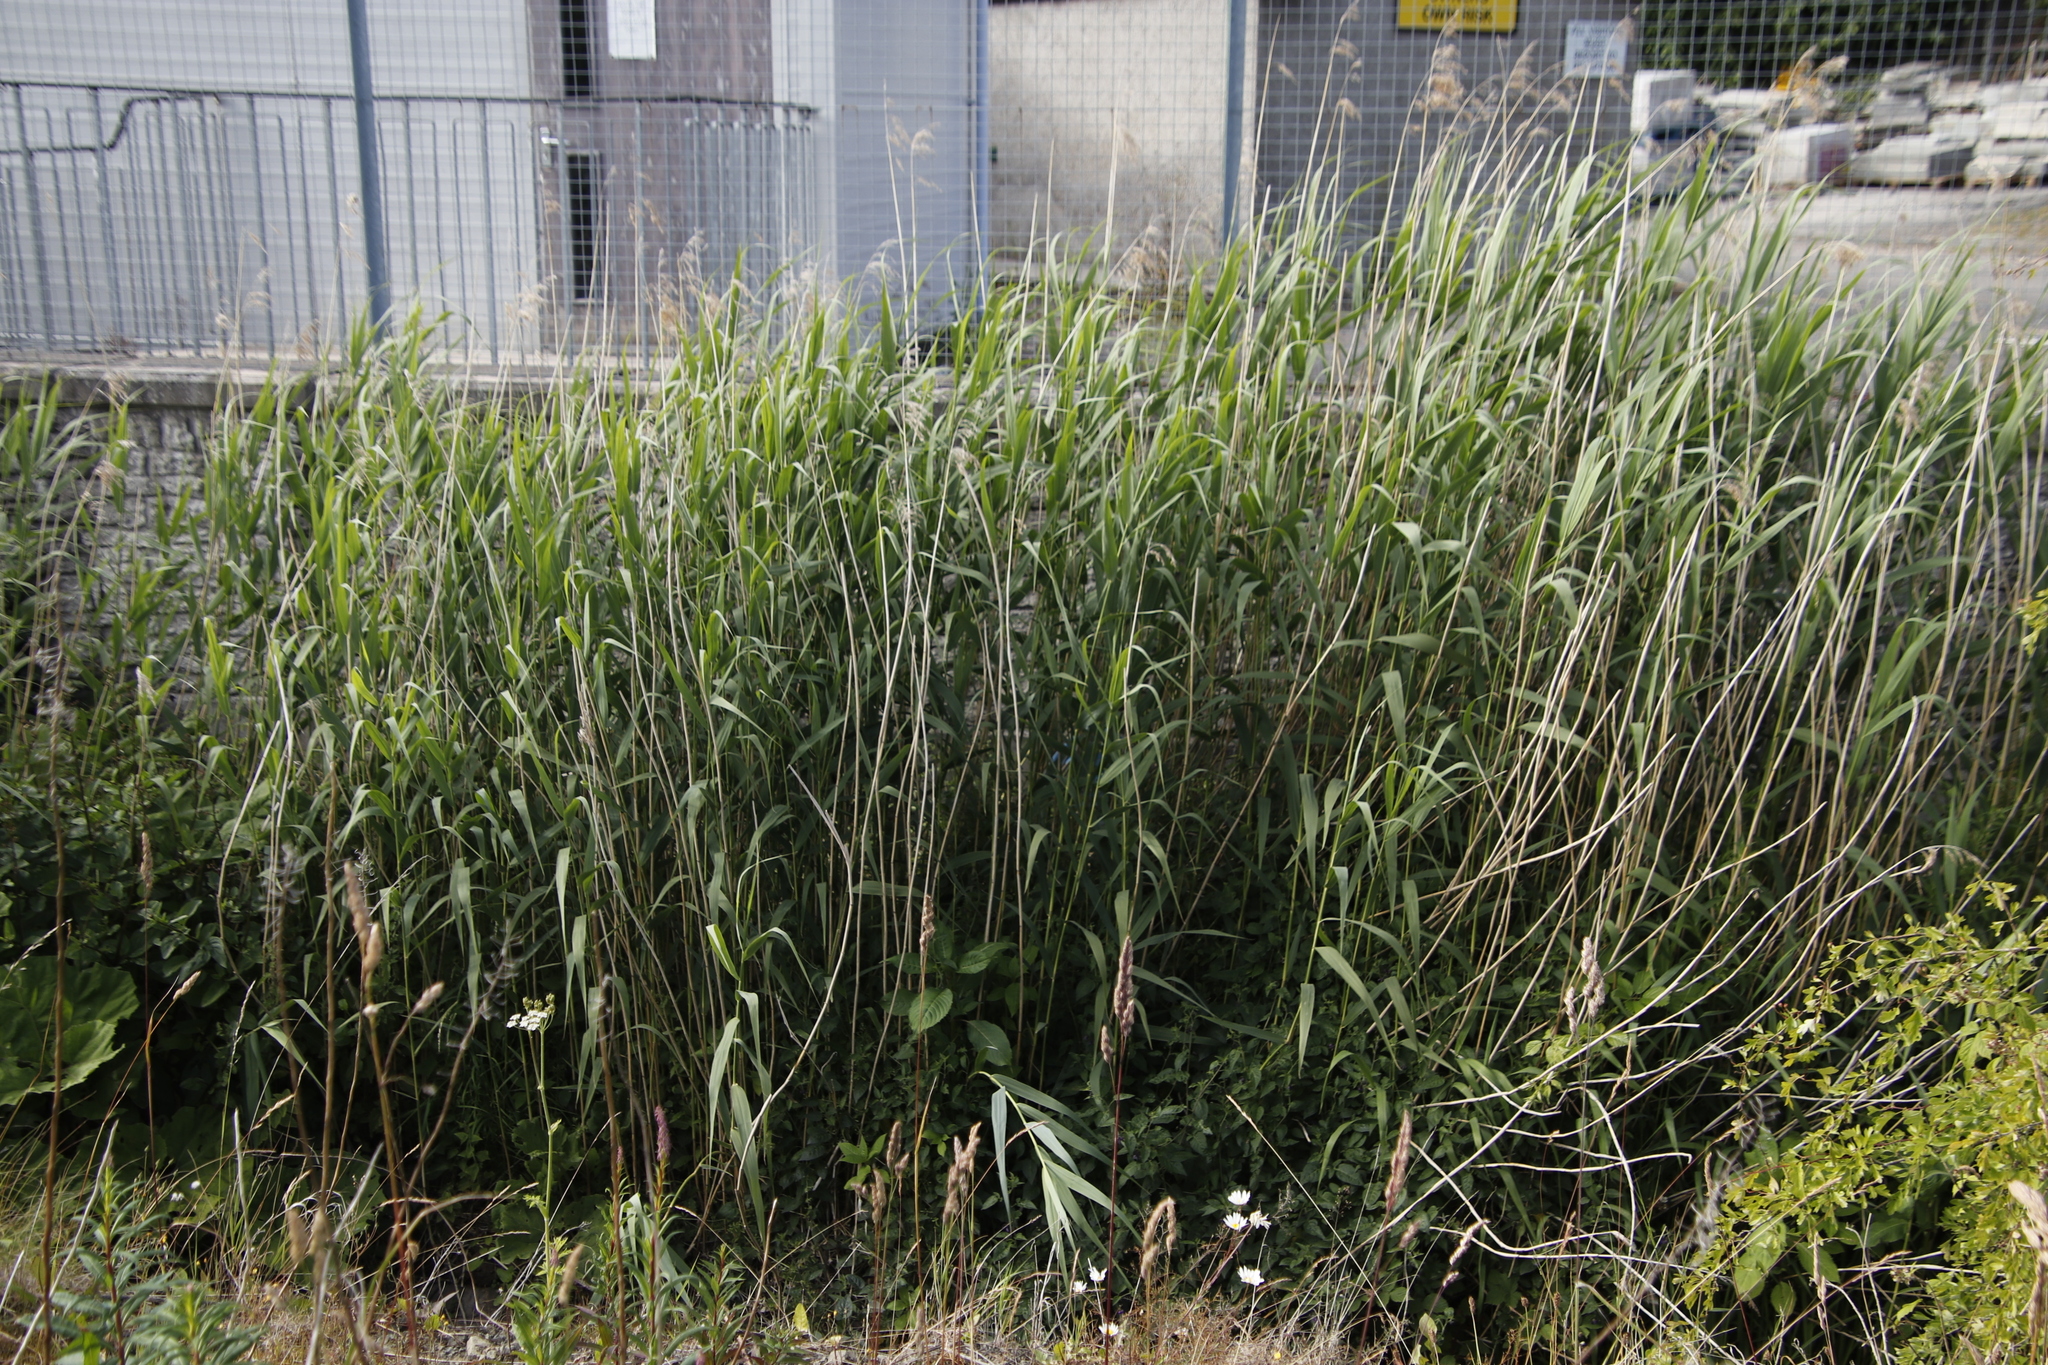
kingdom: Plantae
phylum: Tracheophyta
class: Liliopsida
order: Poales
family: Poaceae
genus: Phragmites
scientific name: Phragmites australis
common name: Common reed
